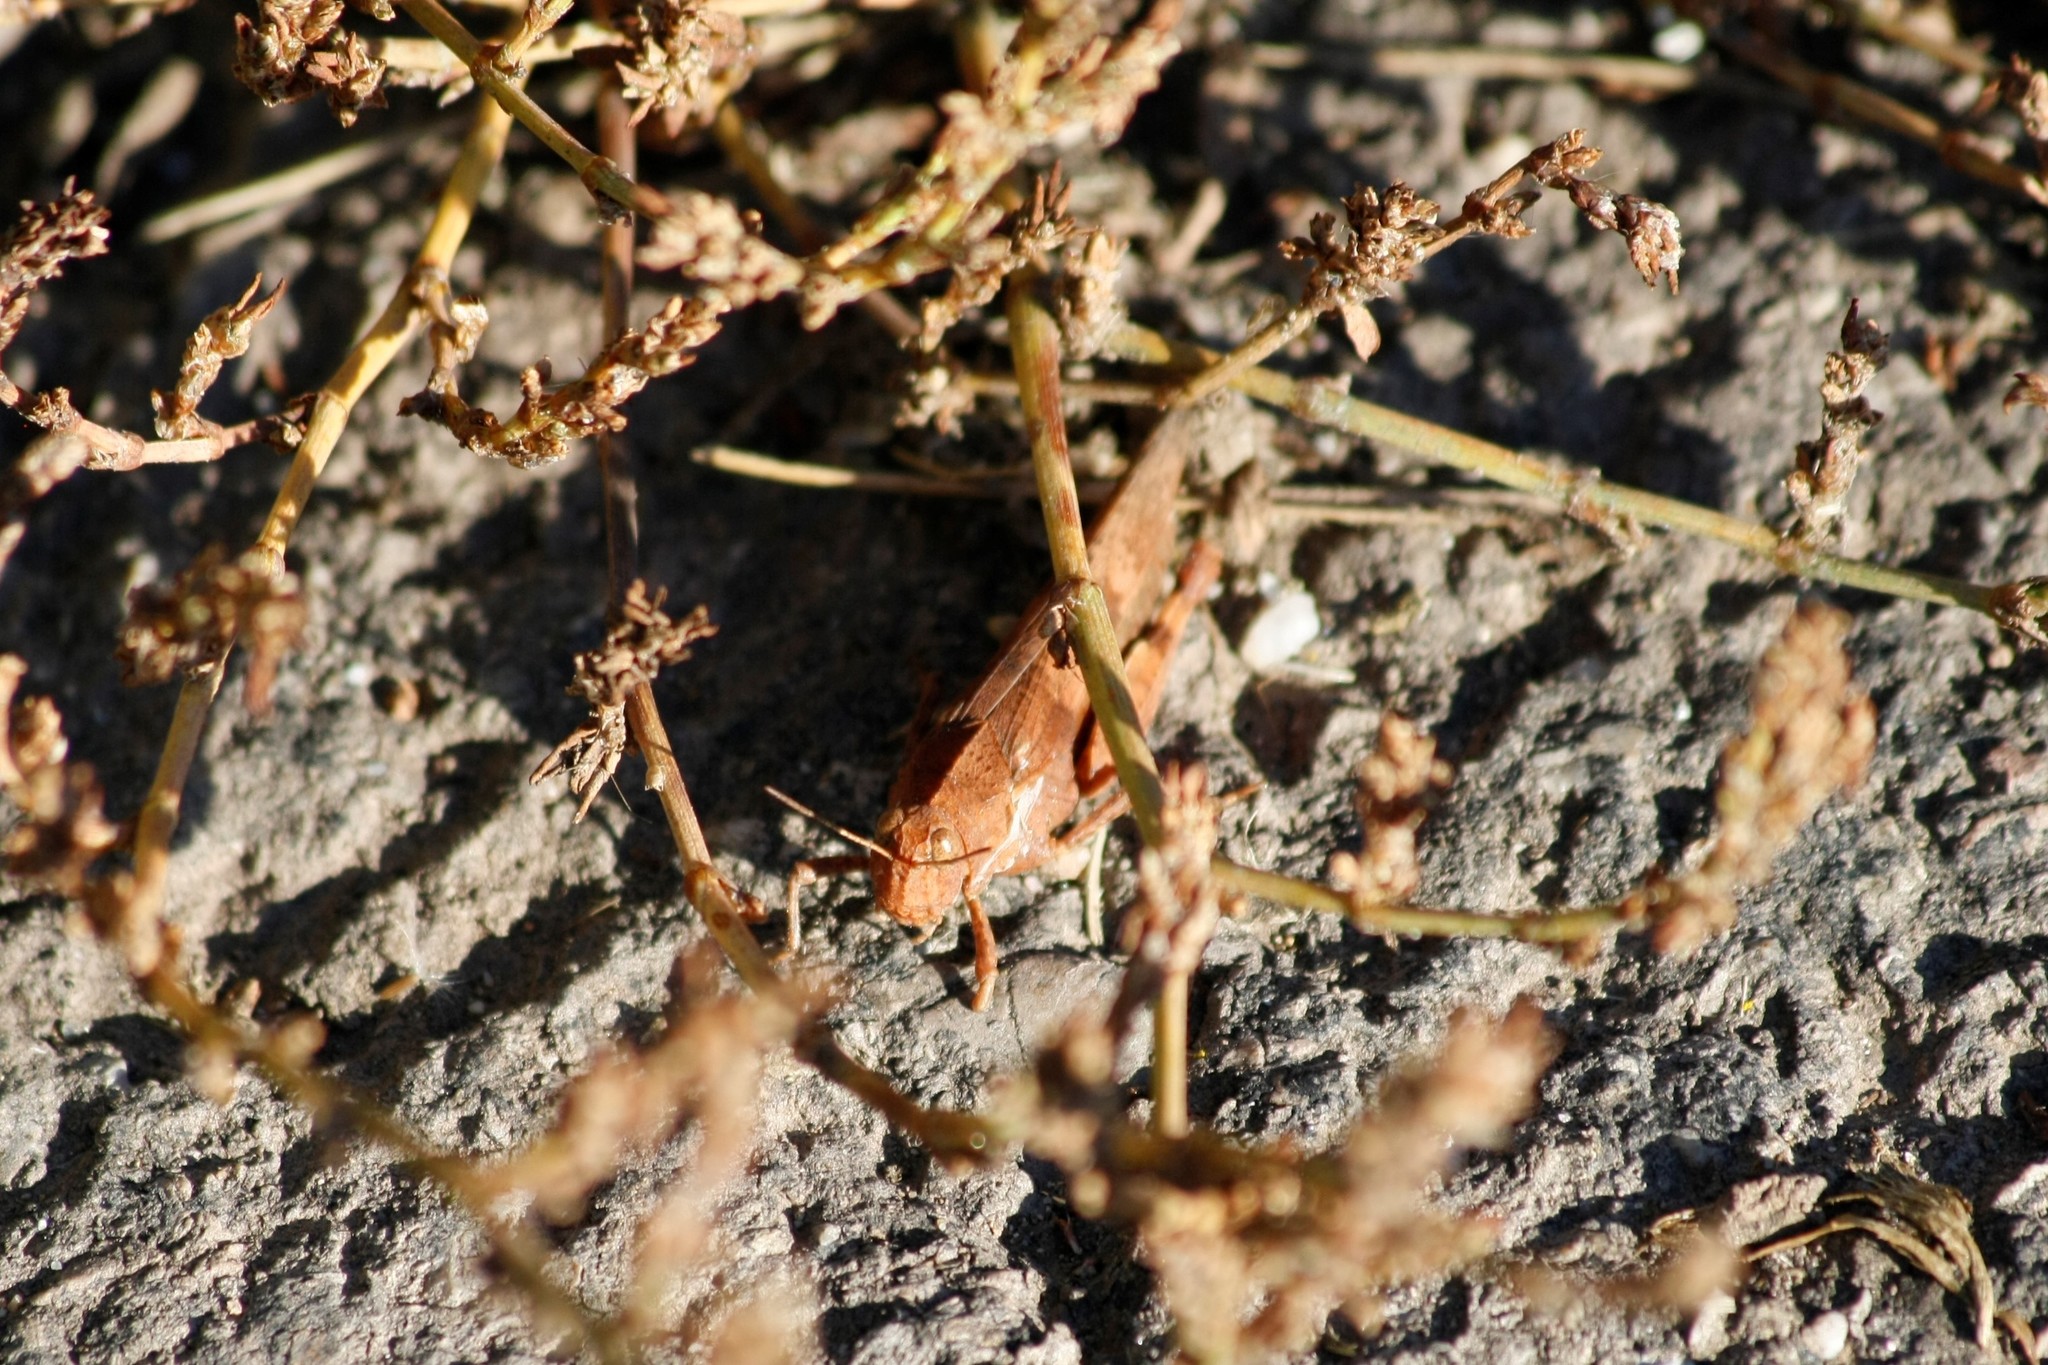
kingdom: Animalia
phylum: Arthropoda
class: Insecta
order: Orthoptera
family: Acrididae
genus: Oedipoda
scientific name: Oedipoda caerulescens
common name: Blue-winged grasshopper
